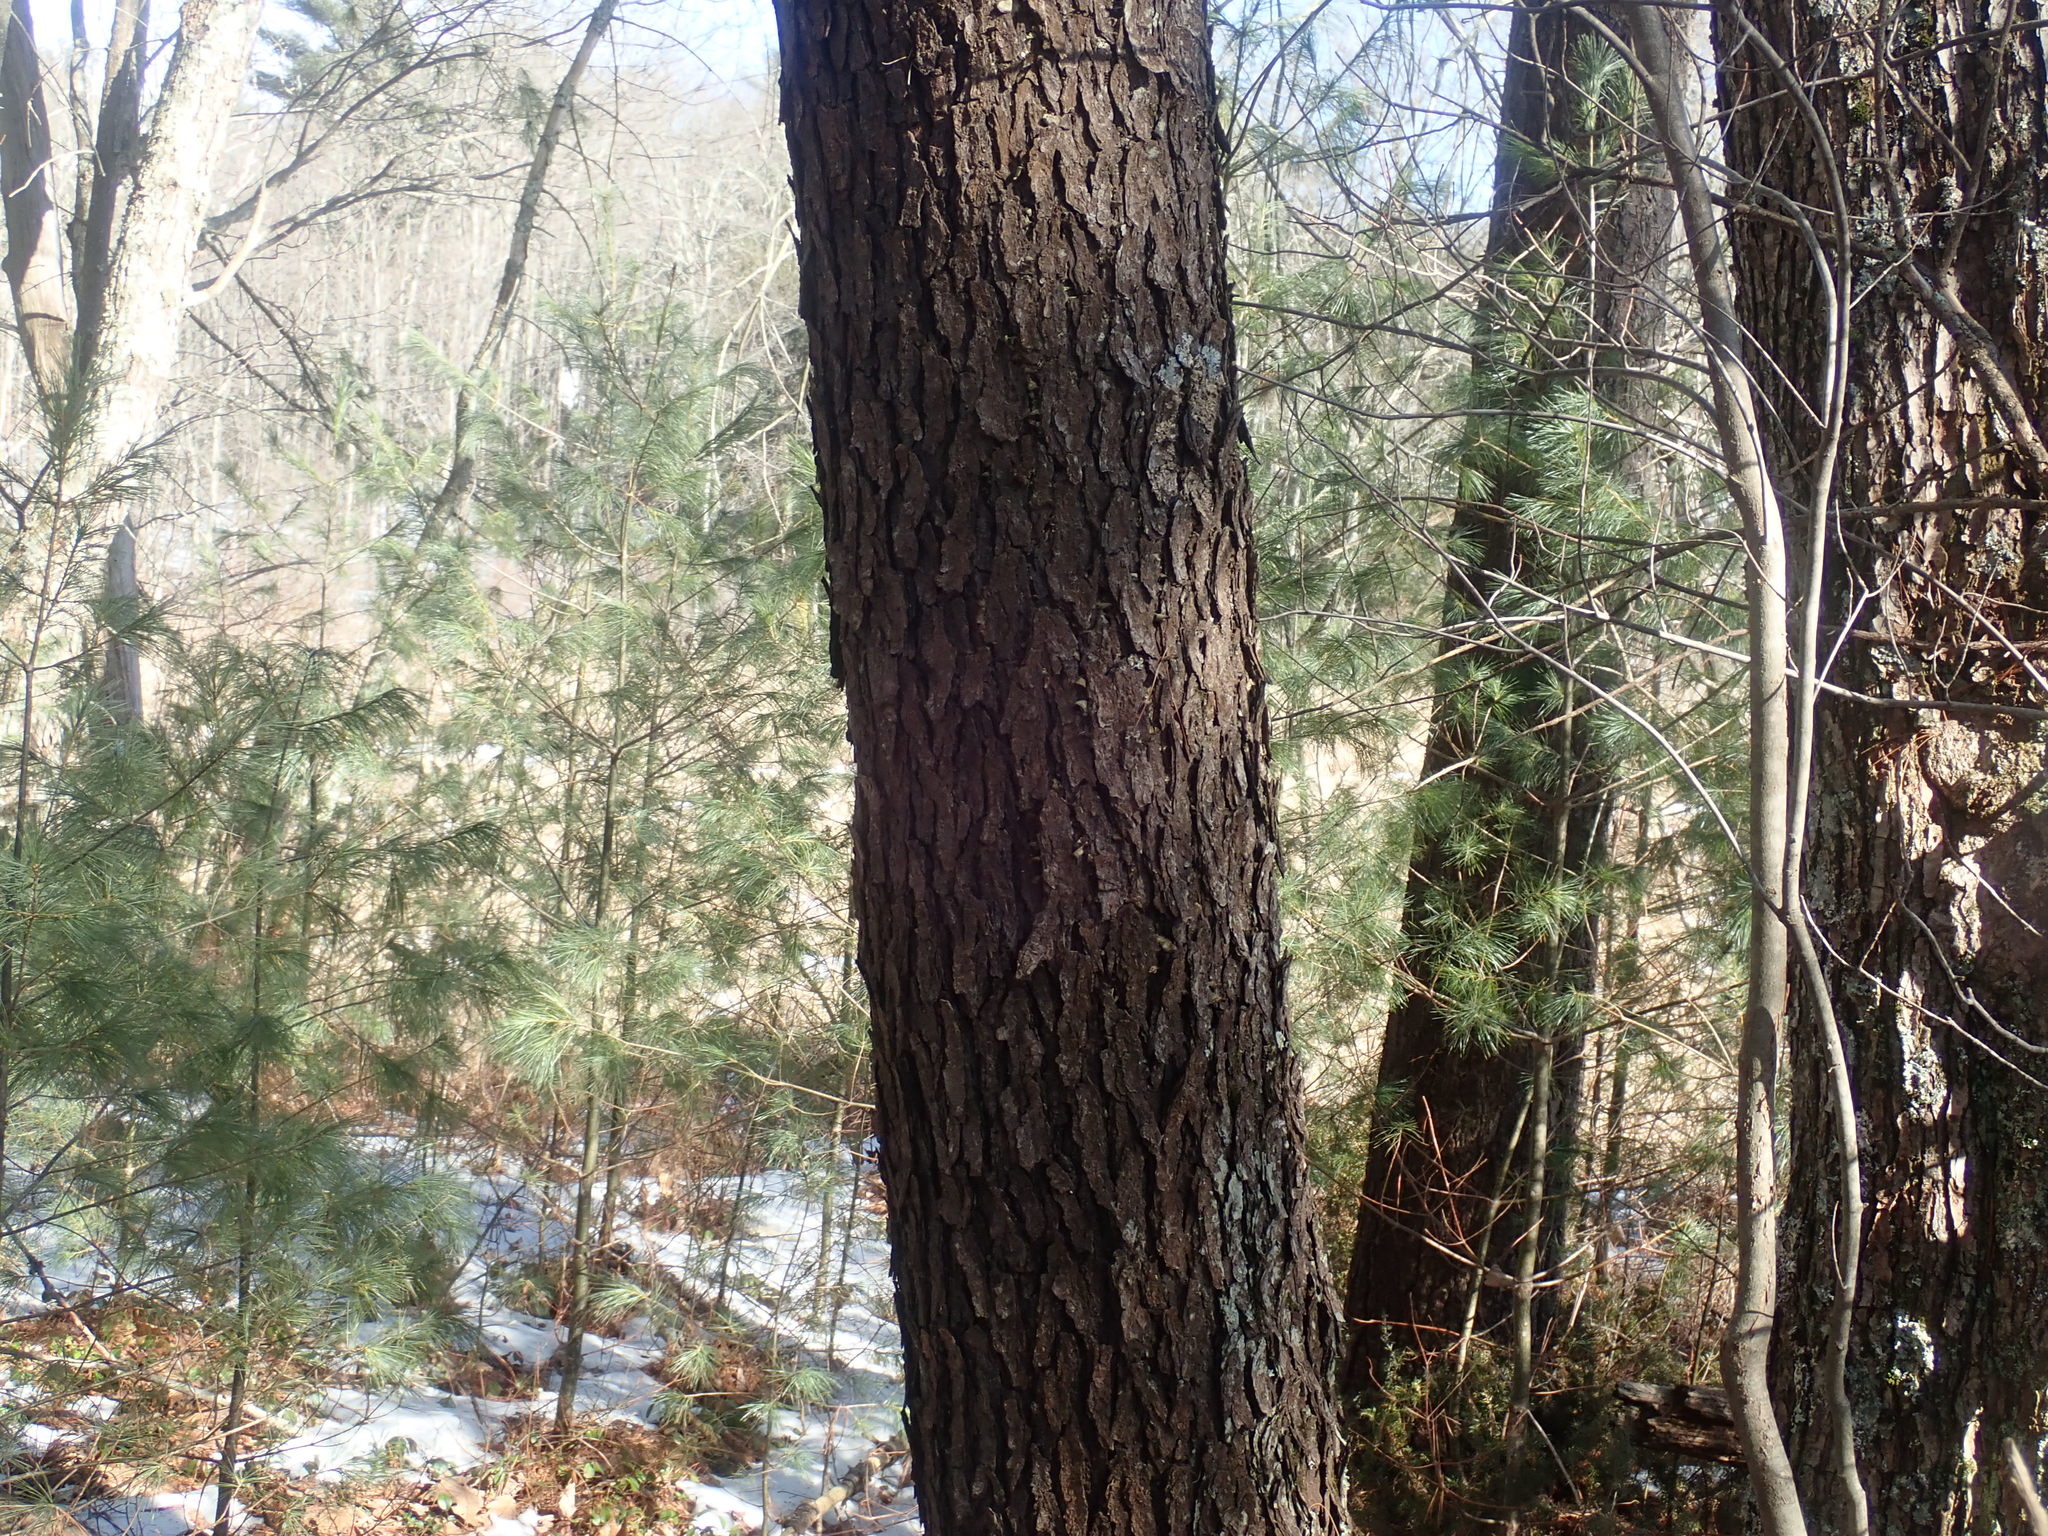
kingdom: Plantae
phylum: Tracheophyta
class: Magnoliopsida
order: Rosales
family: Rosaceae
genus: Prunus
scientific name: Prunus serotina
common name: Black cherry
